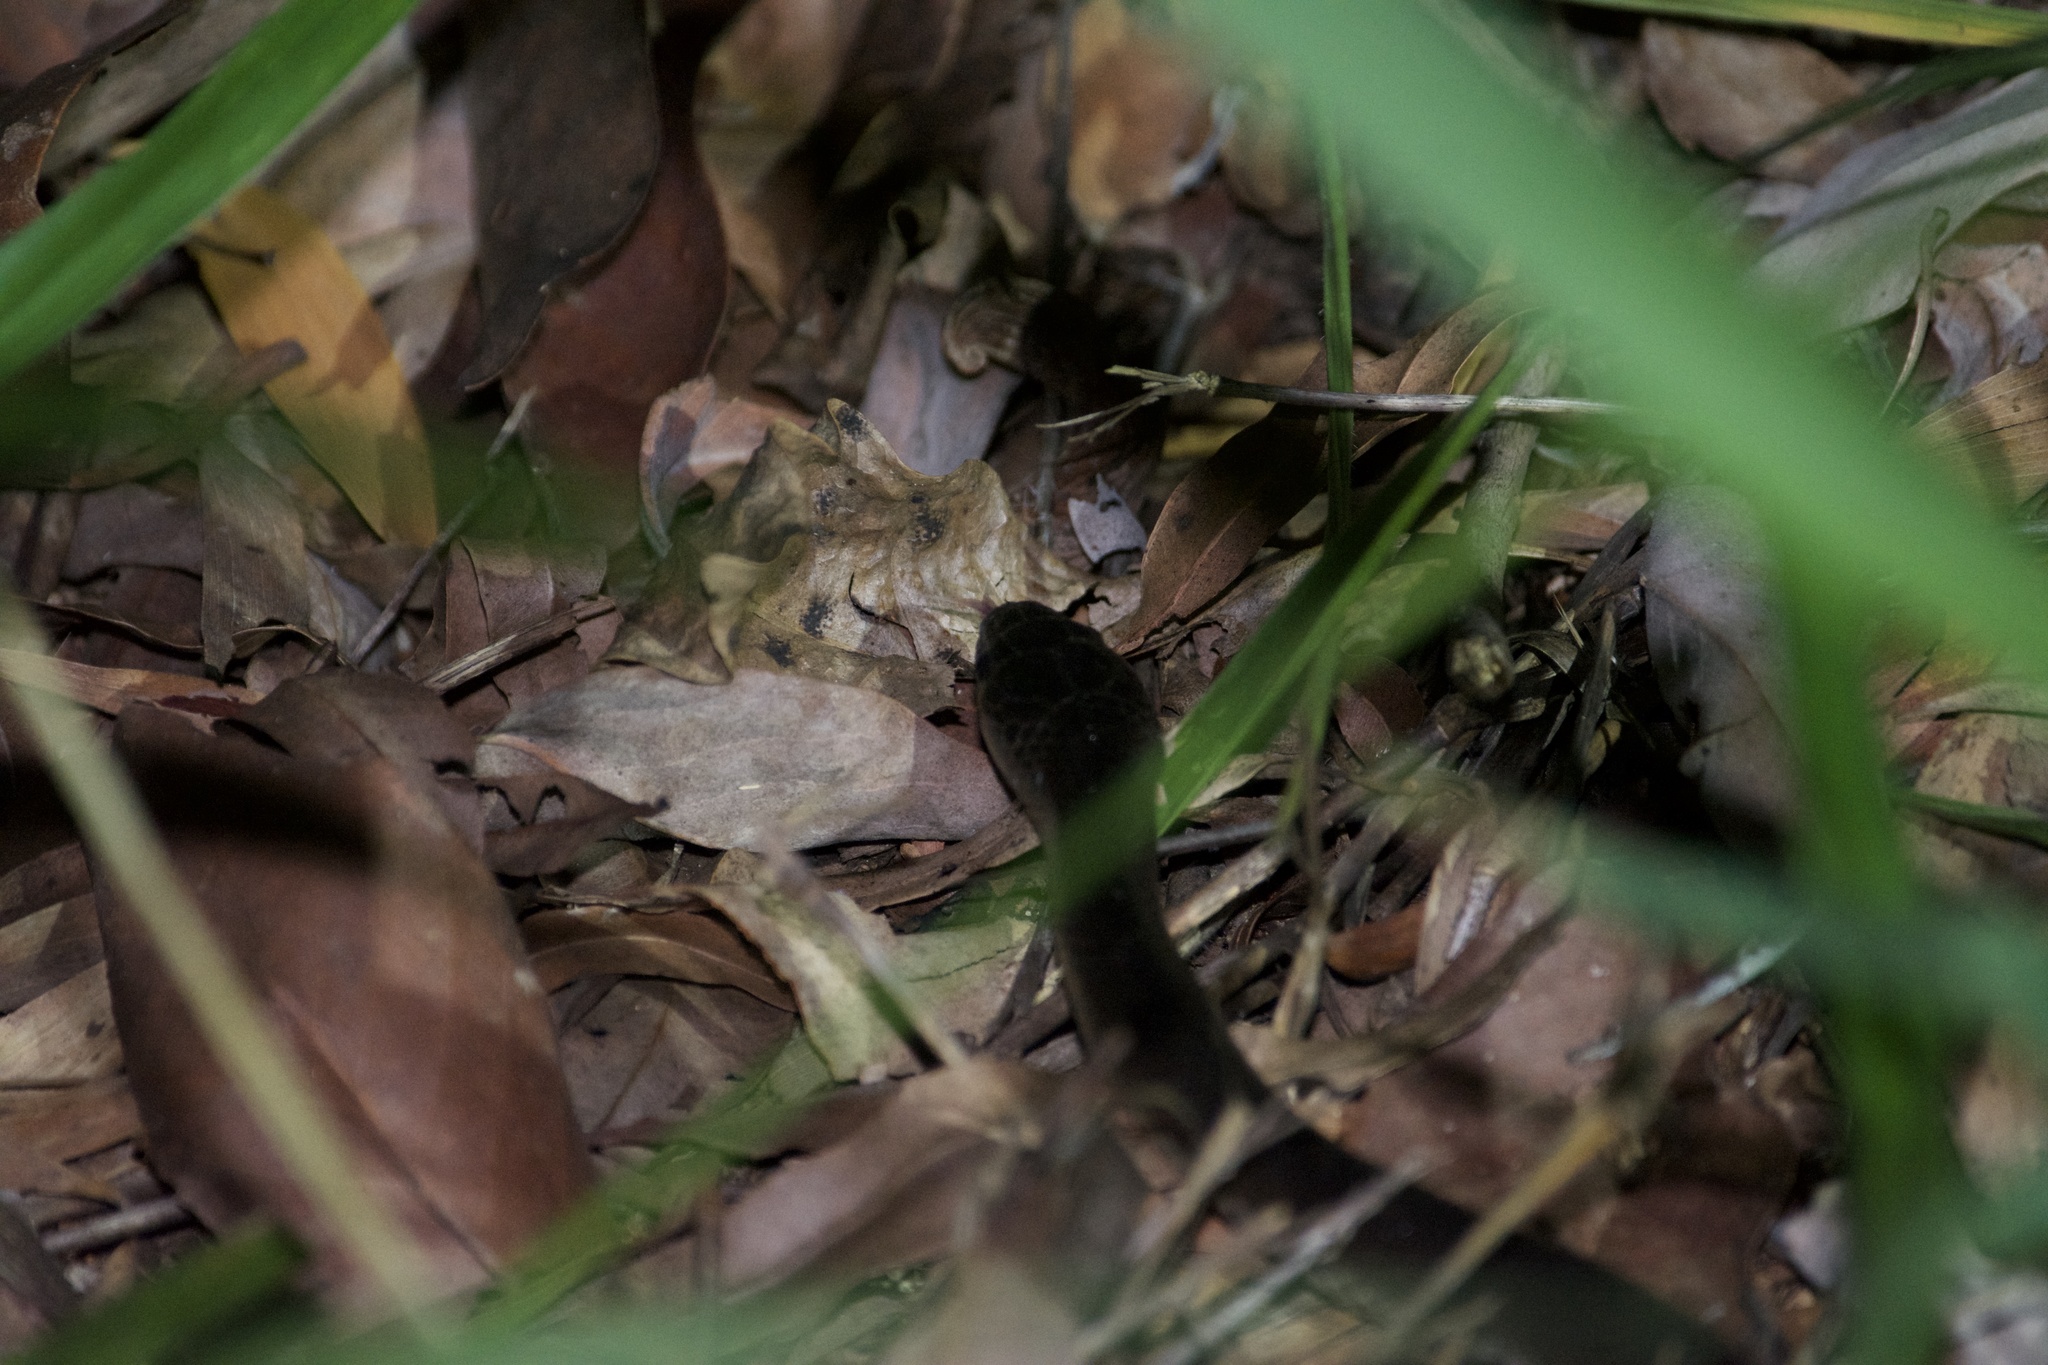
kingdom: Animalia
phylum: Chordata
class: Squamata
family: Colubridae
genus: Stegonotus
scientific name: Stegonotus australis
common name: Australian groundsnake
